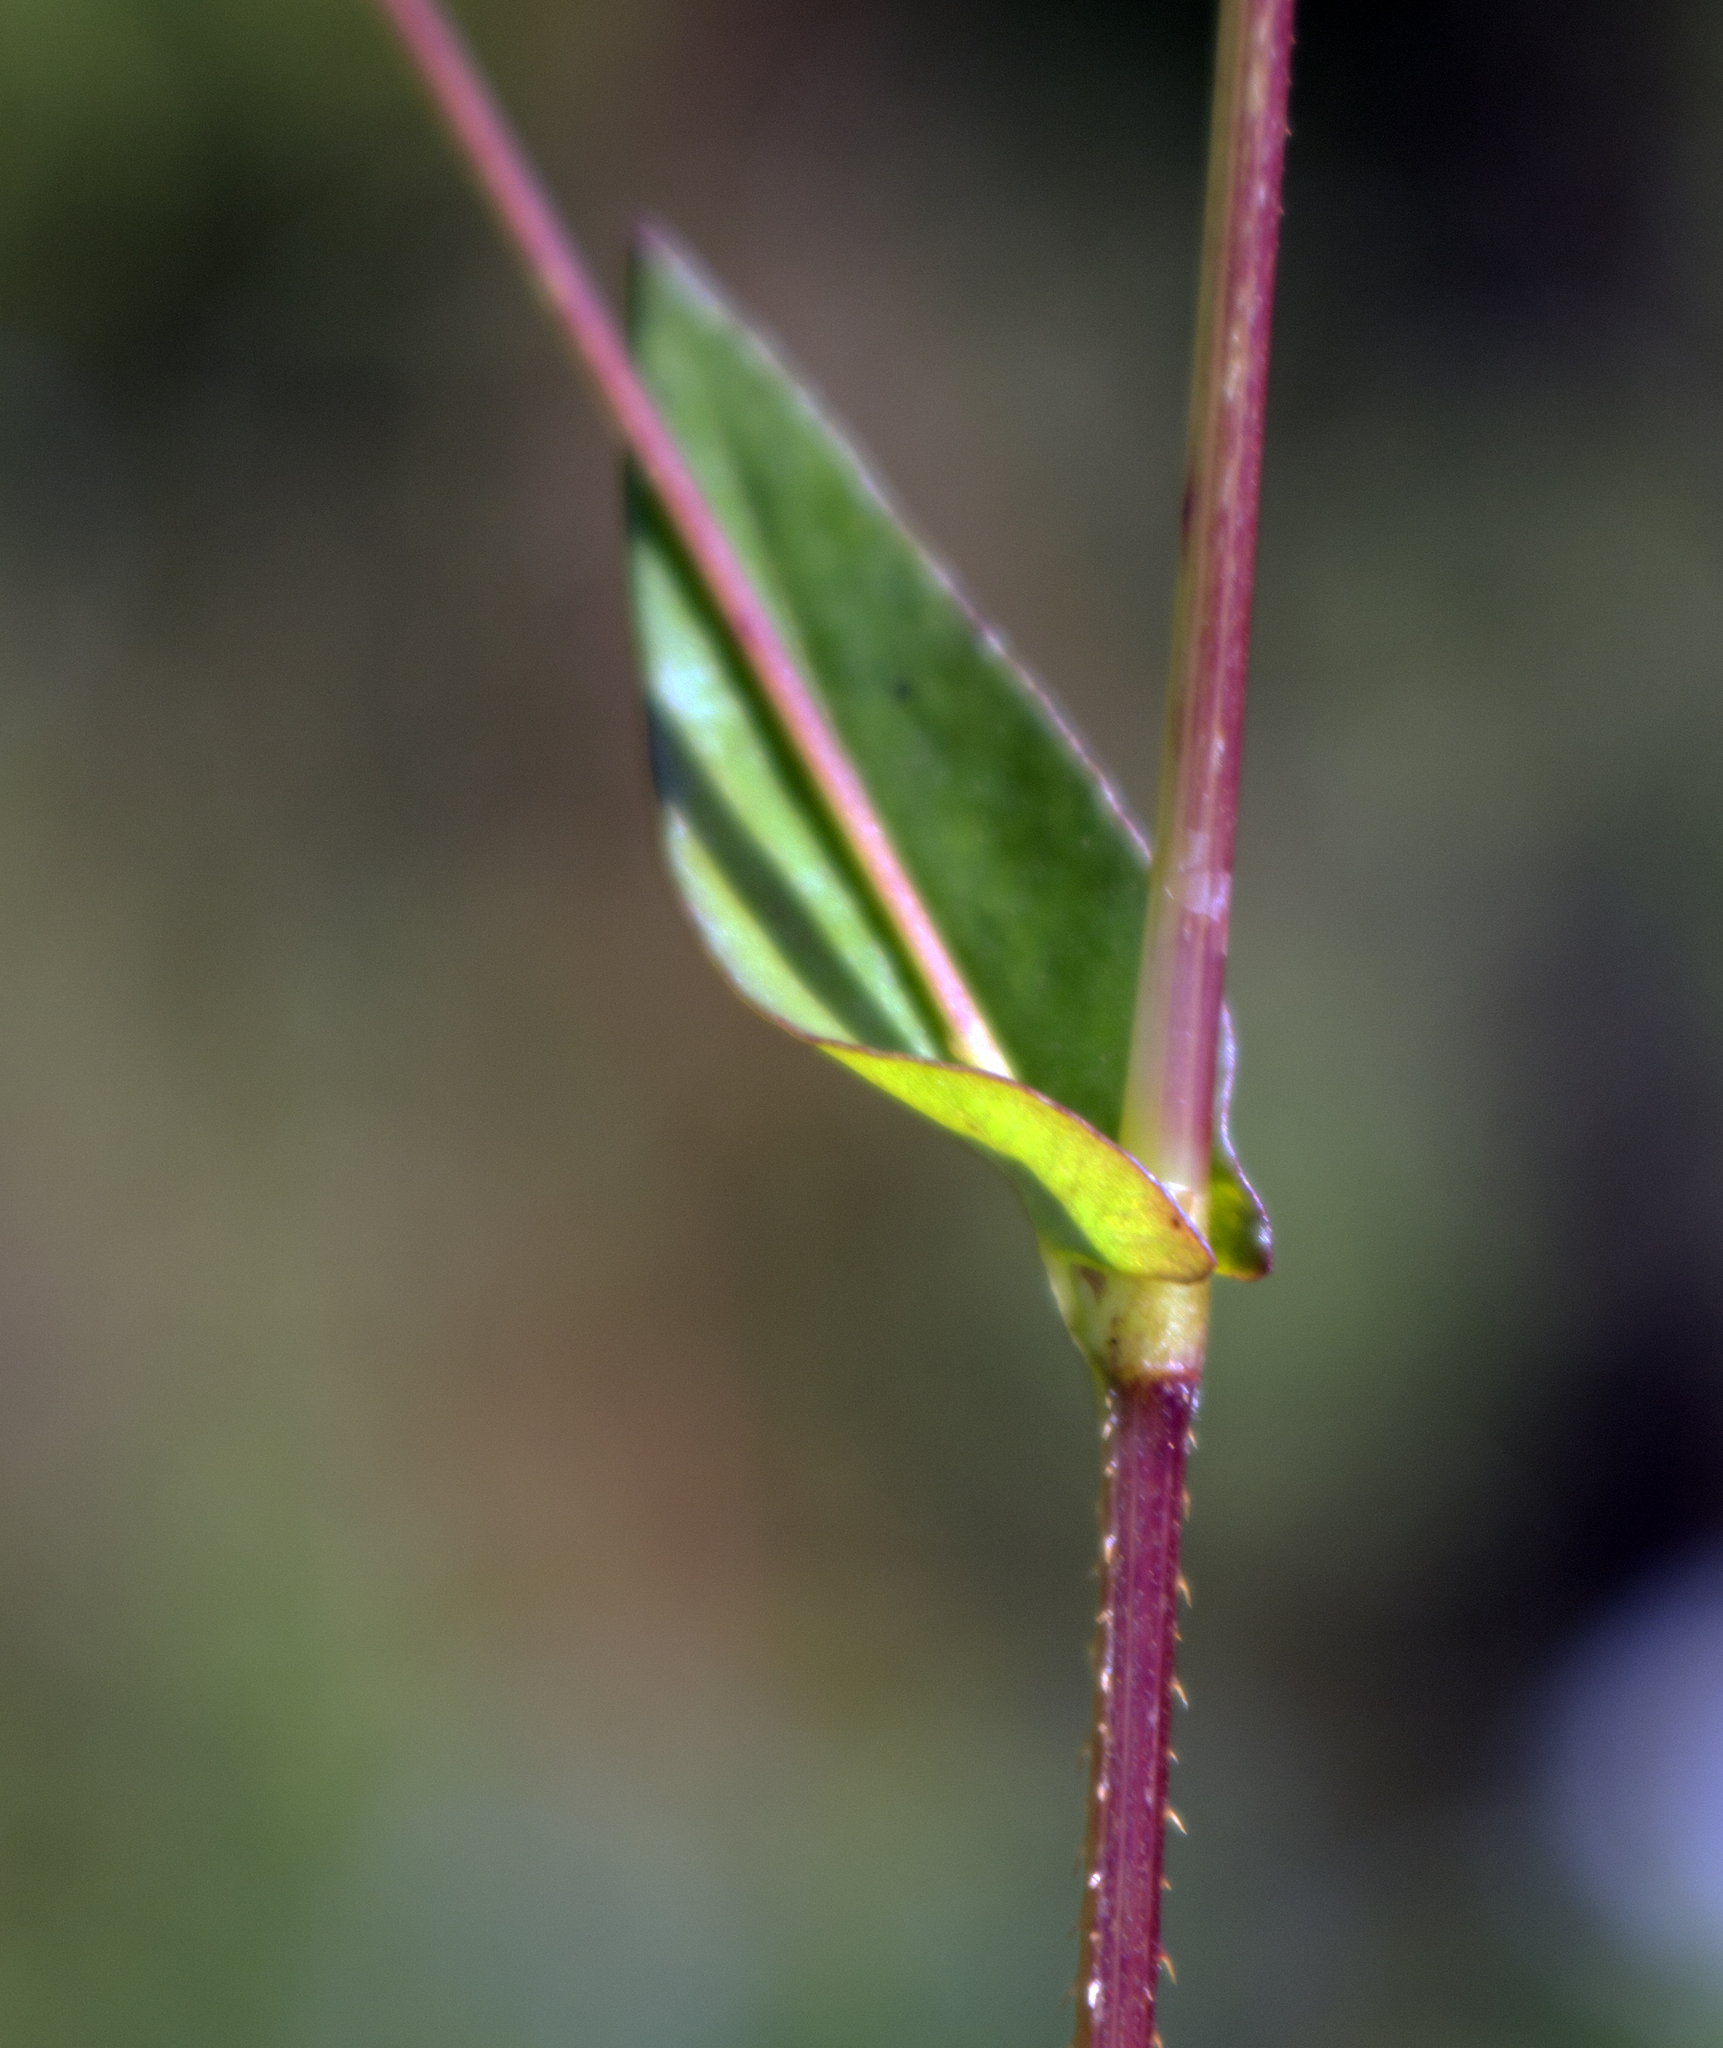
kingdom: Plantae
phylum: Tracheophyta
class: Magnoliopsida
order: Caryophyllales
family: Polygonaceae
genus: Persicaria
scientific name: Persicaria sagittata
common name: American tearthumb
